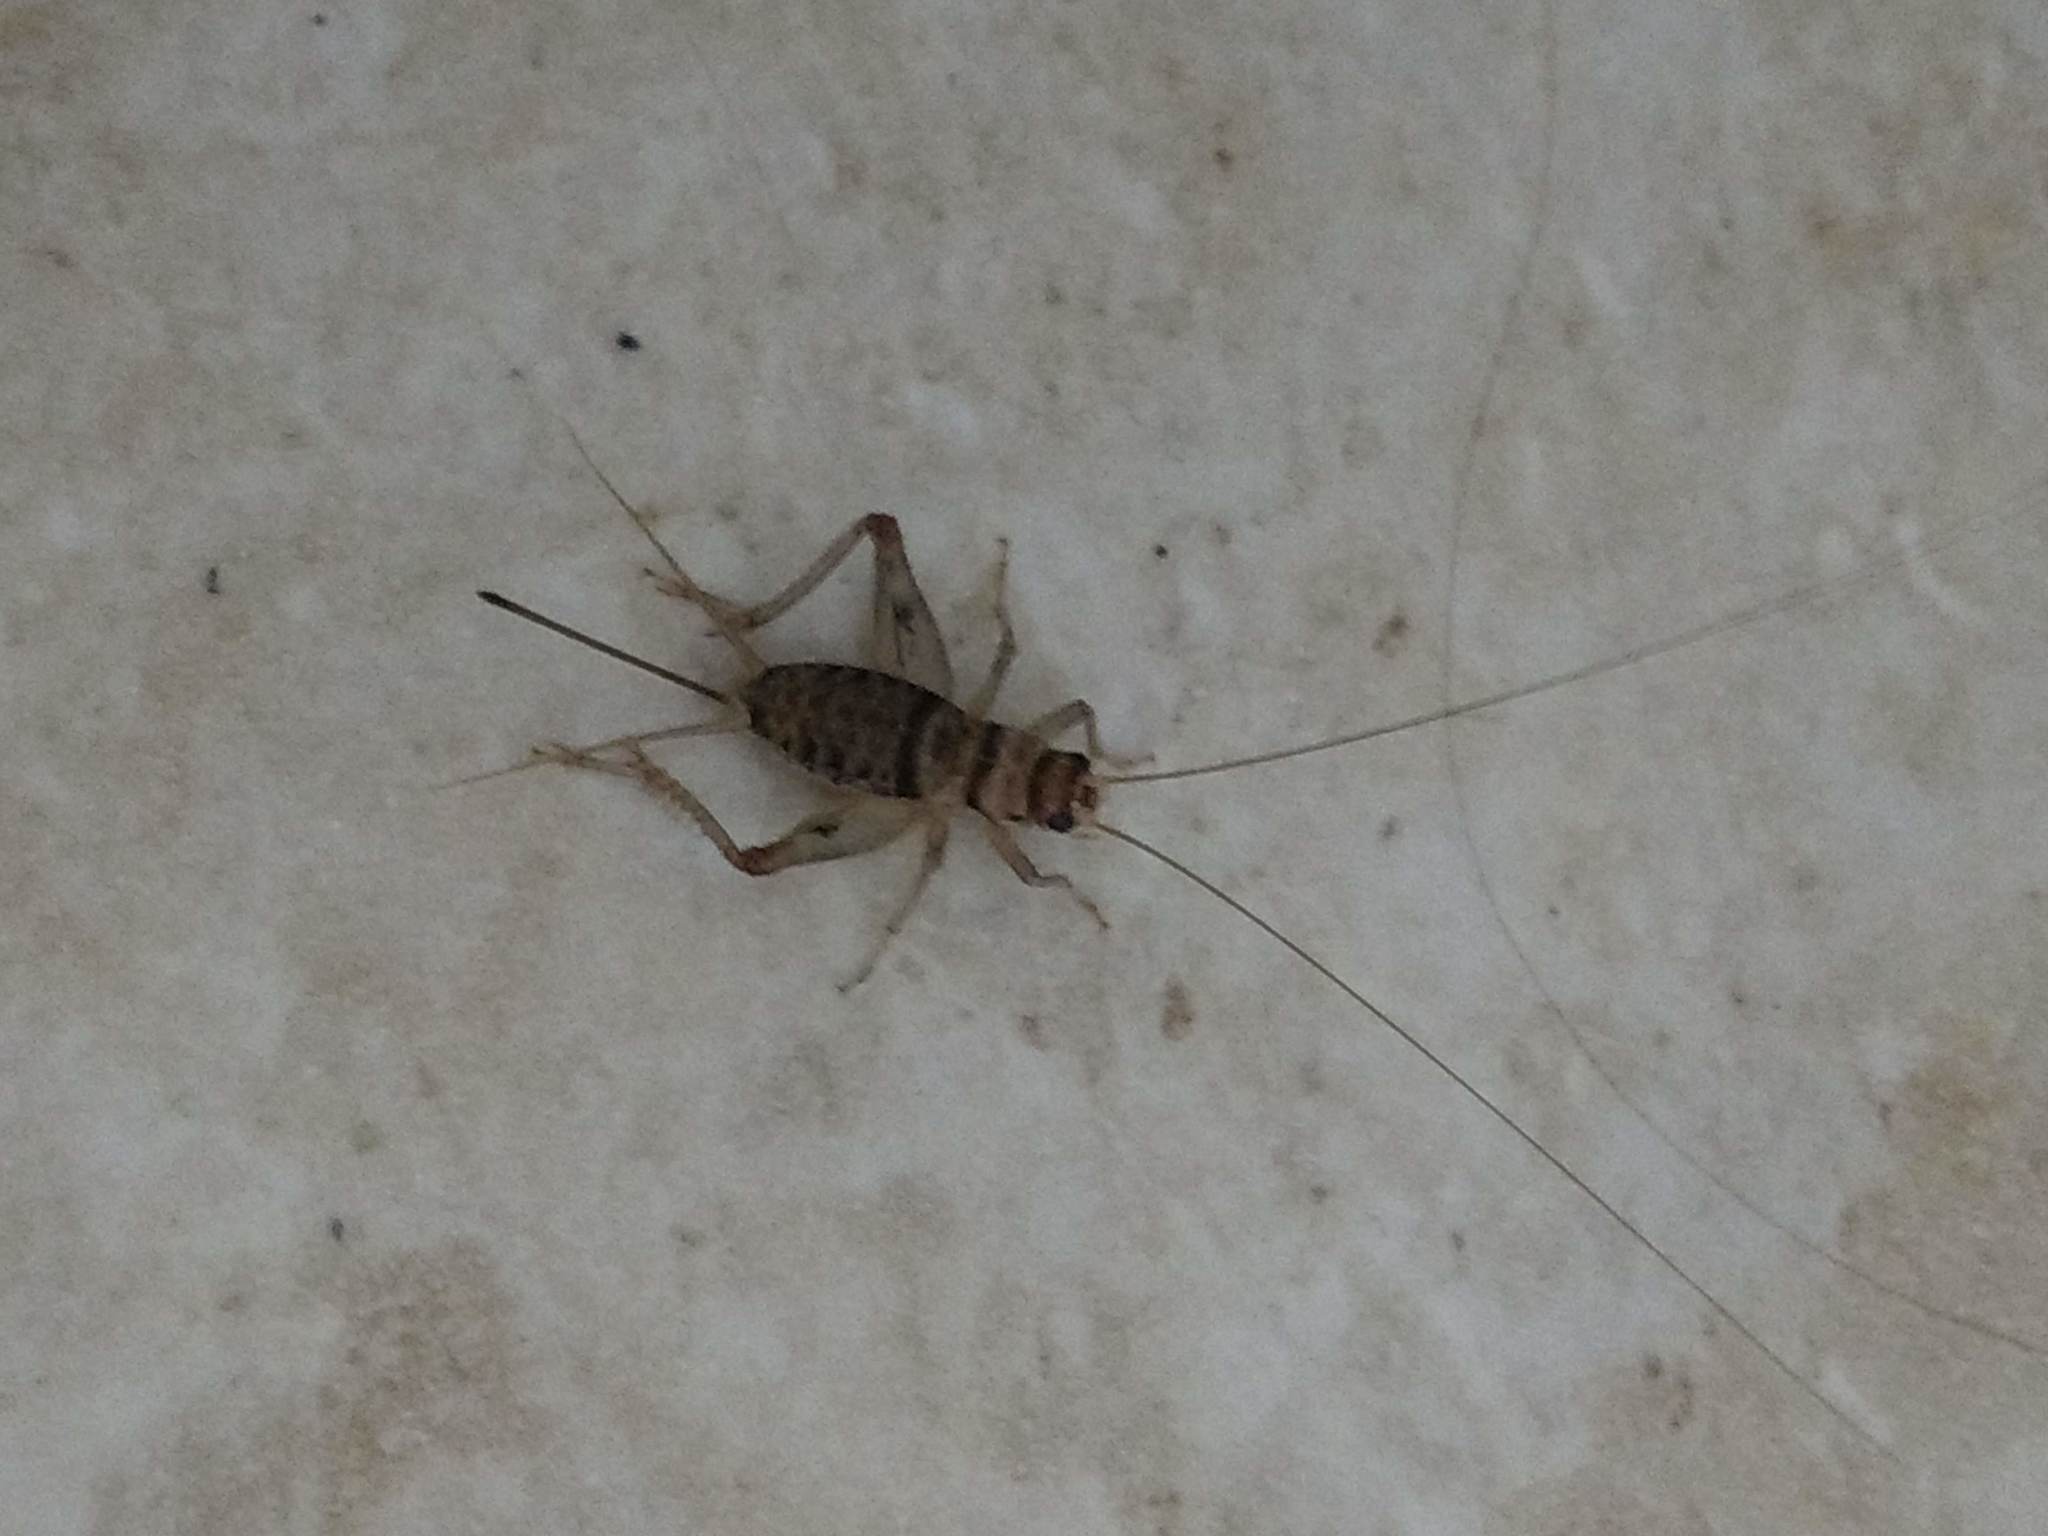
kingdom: Animalia
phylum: Arthropoda
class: Insecta
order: Orthoptera
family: Gryllidae
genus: Gryllodes
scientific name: Gryllodes sigillatus
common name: Tropical house cricket
